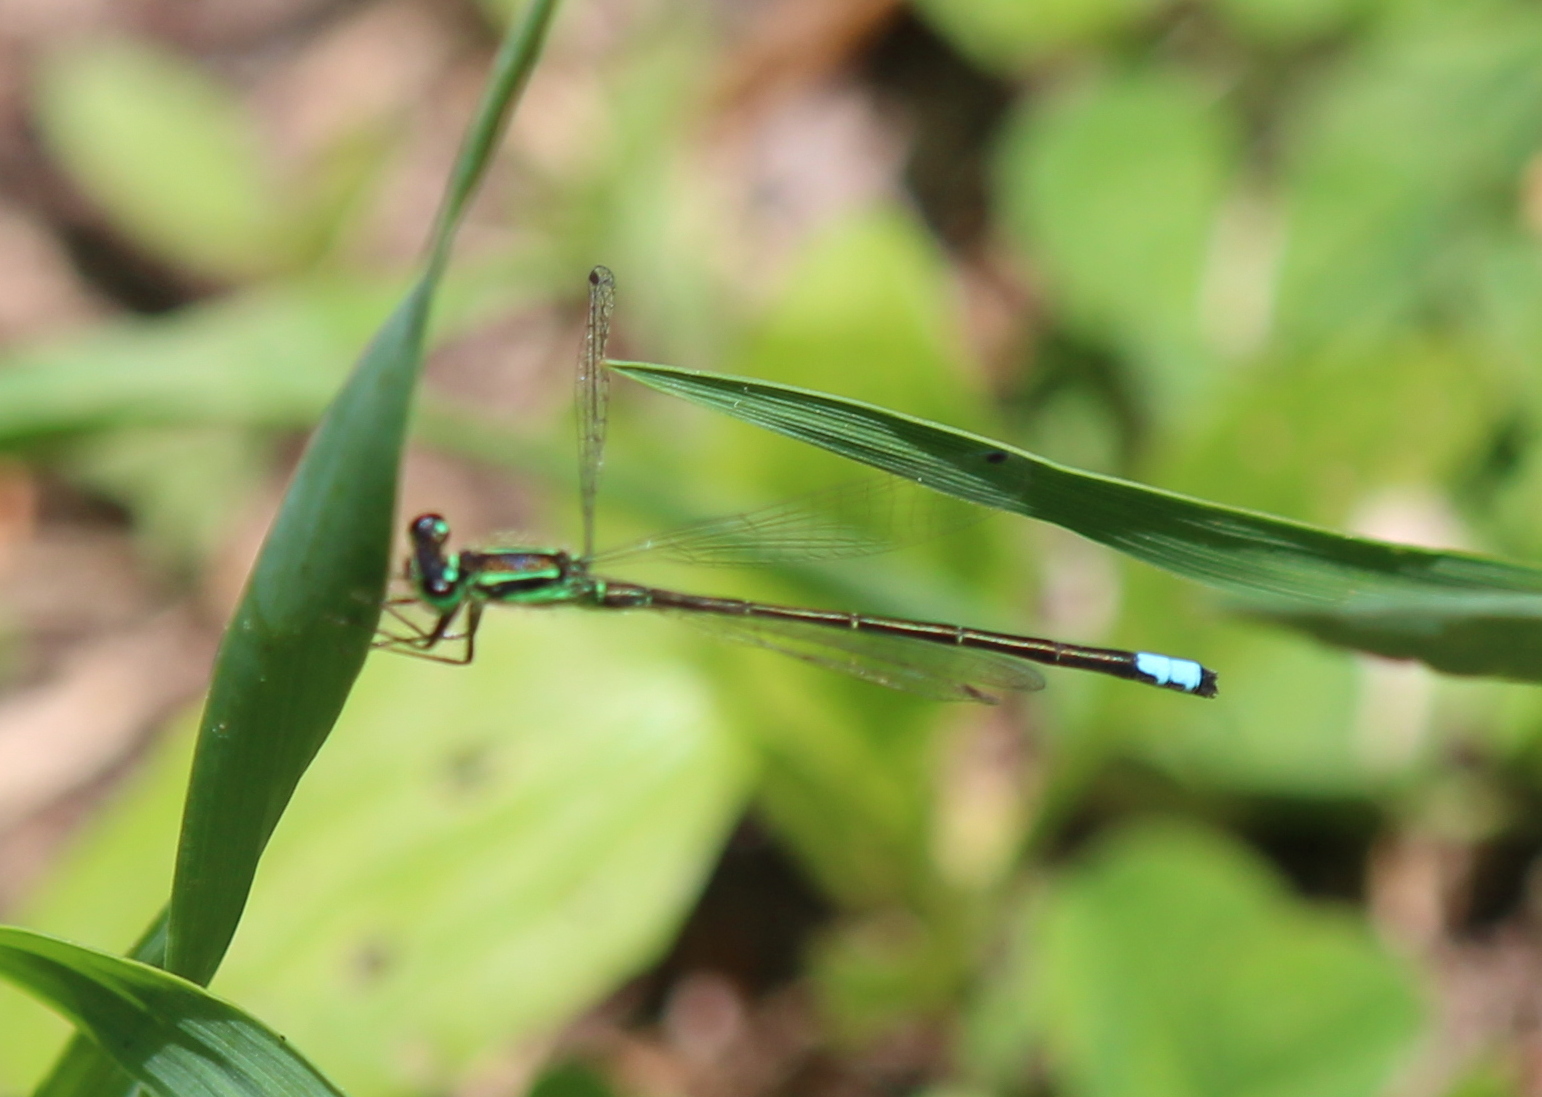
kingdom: Animalia
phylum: Arthropoda
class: Insecta
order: Odonata
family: Coenagrionidae
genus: Ischnura
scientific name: Ischnura verticalis
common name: Eastern forktail
